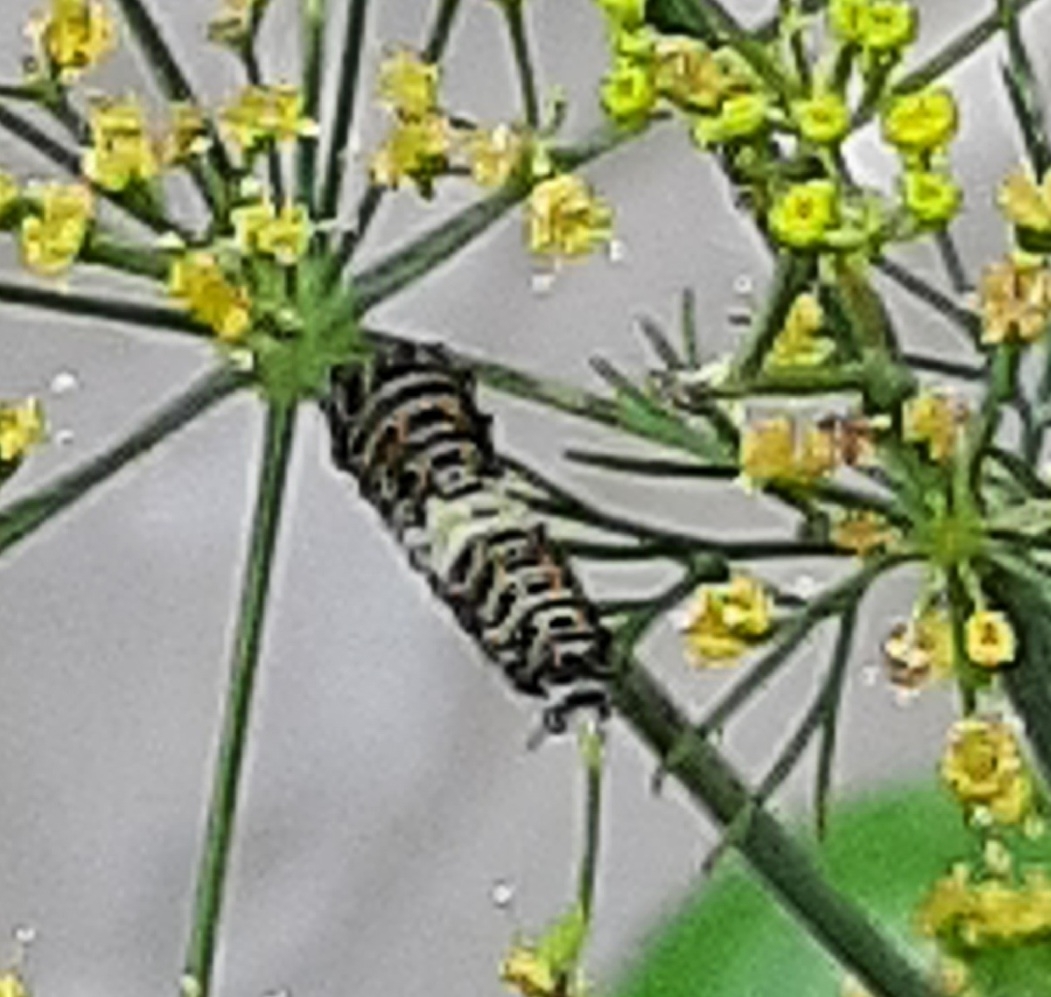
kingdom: Animalia
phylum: Arthropoda
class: Insecta
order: Lepidoptera
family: Papilionidae
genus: Papilio
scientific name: Papilio polyxenes
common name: Black swallowtail
